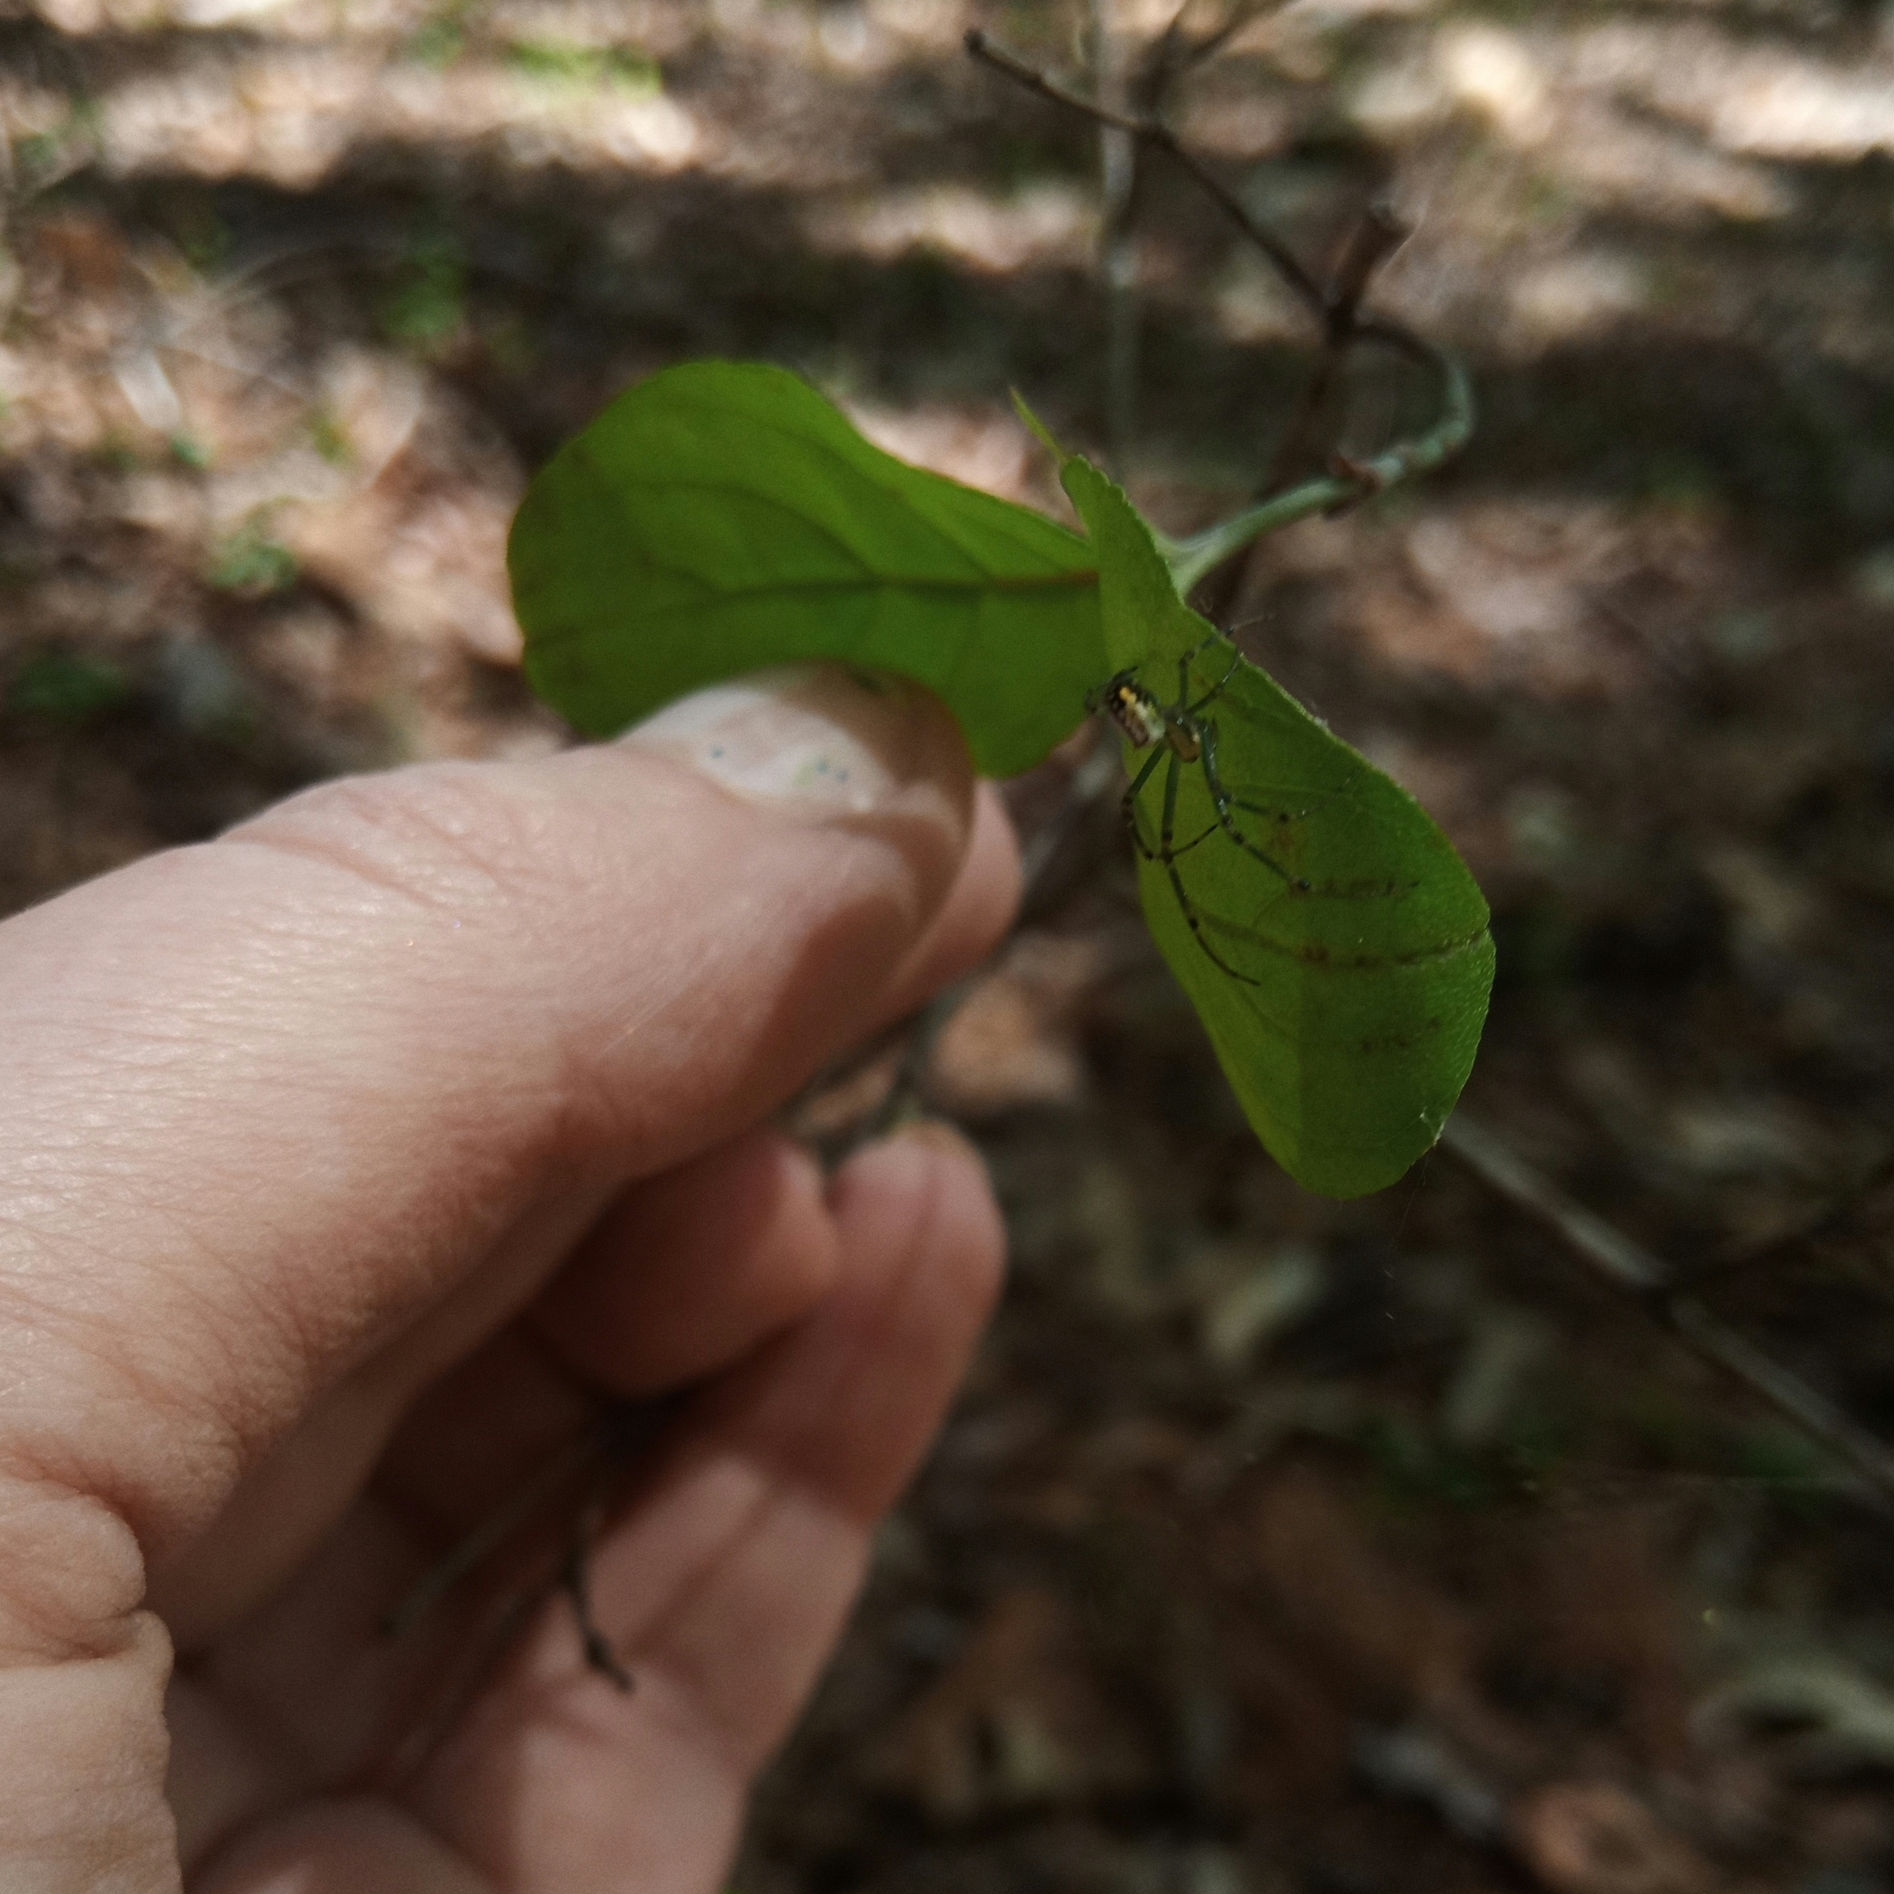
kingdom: Animalia
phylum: Arthropoda
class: Arachnida
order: Araneae
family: Tetragnathidae
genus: Leucauge
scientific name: Leucauge venusta
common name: Longjawed orb weavers
